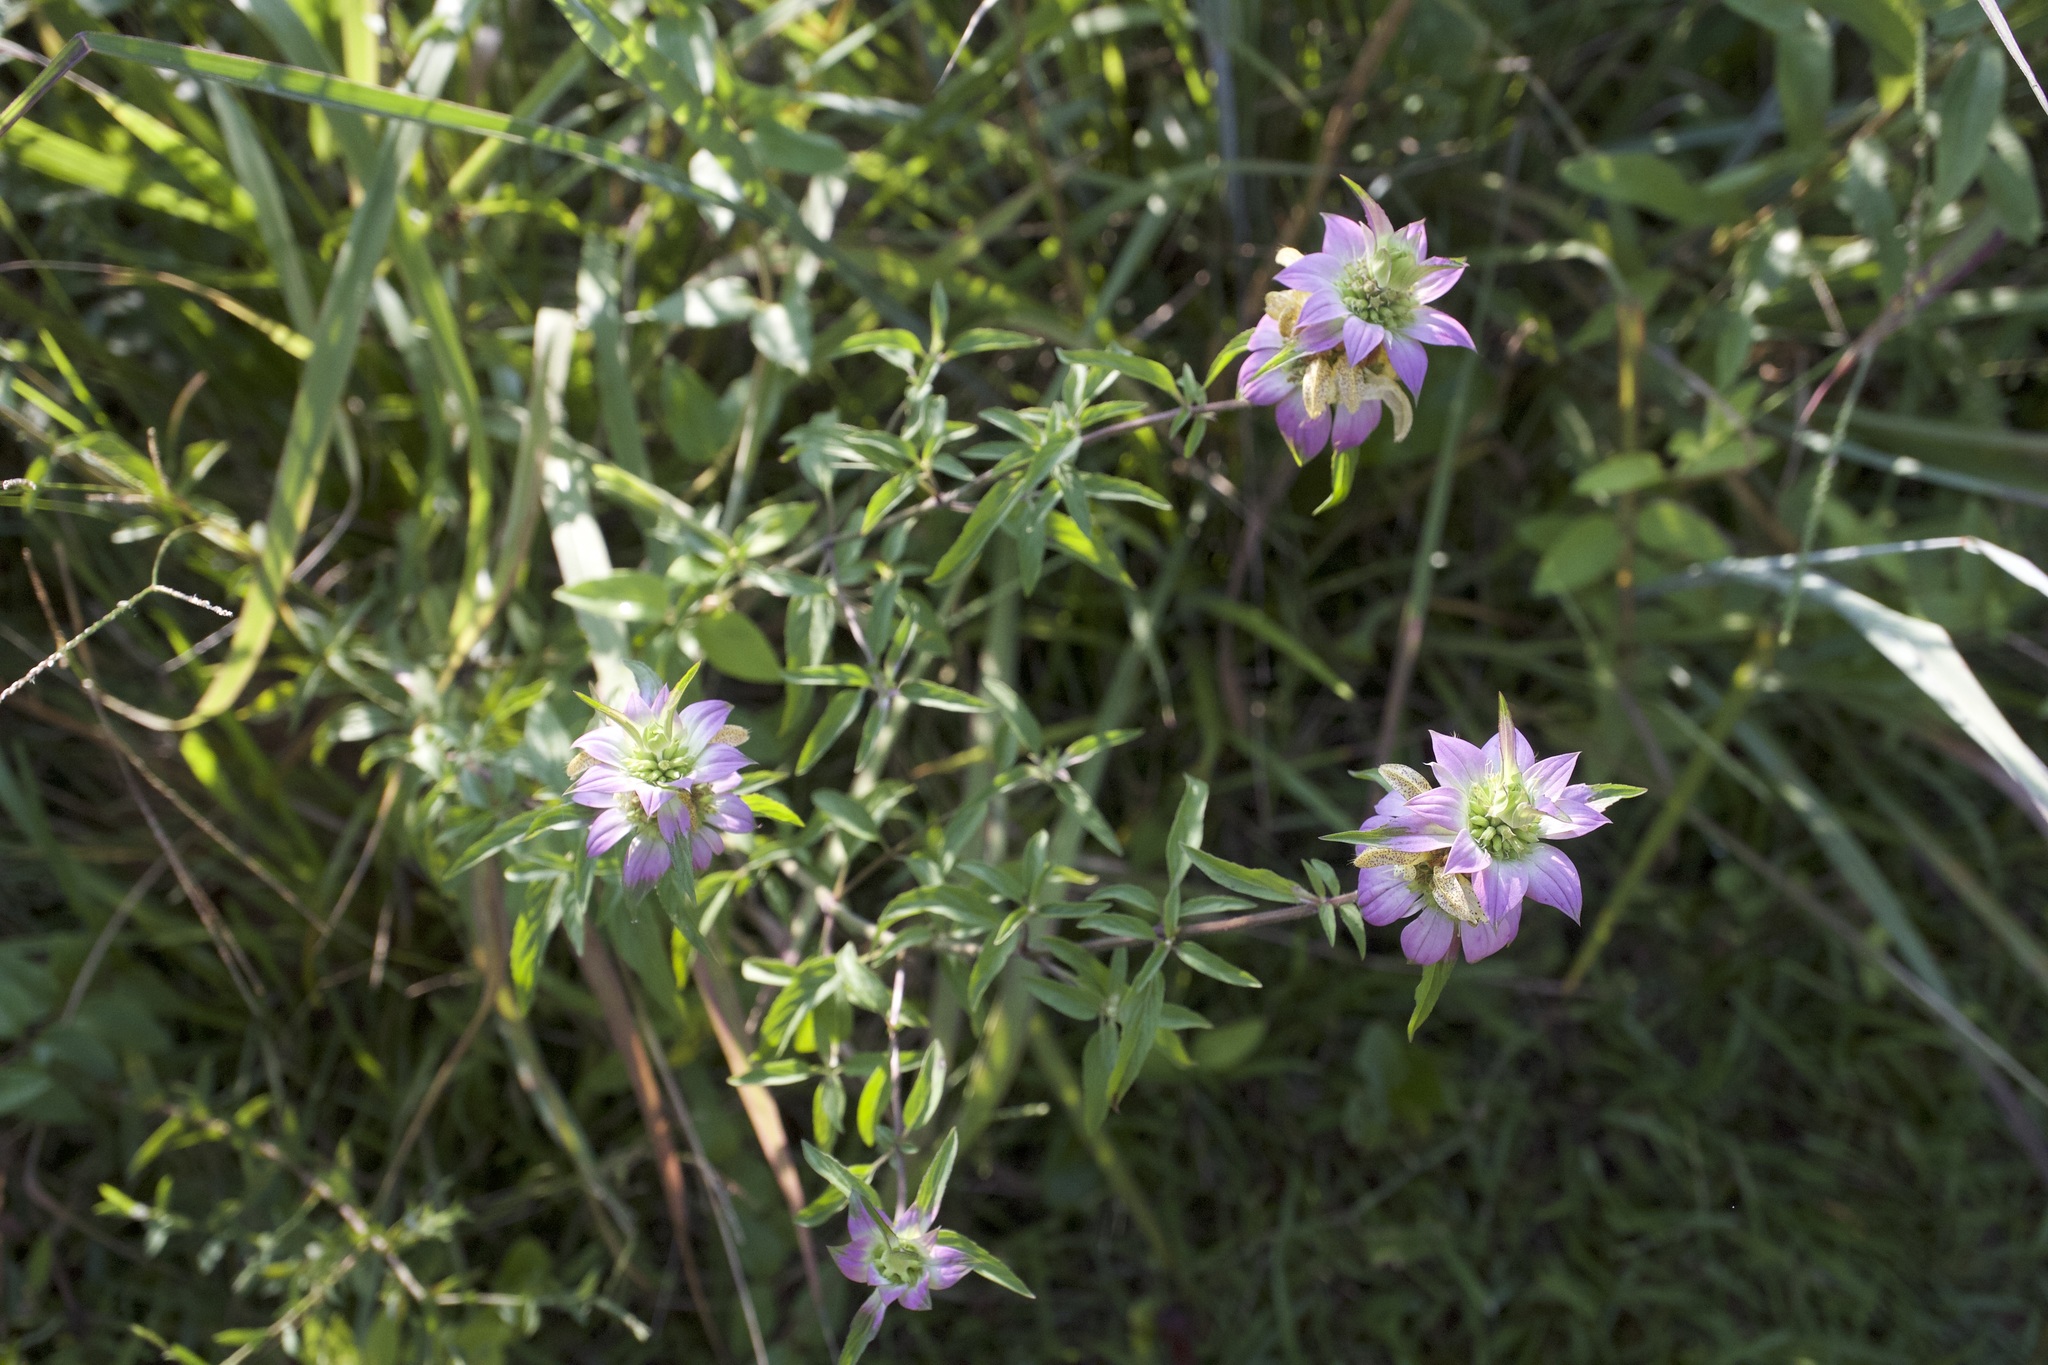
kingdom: Plantae
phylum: Tracheophyta
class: Magnoliopsida
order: Lamiales
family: Lamiaceae
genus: Monarda
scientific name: Monarda punctata
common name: Dotted monarda
